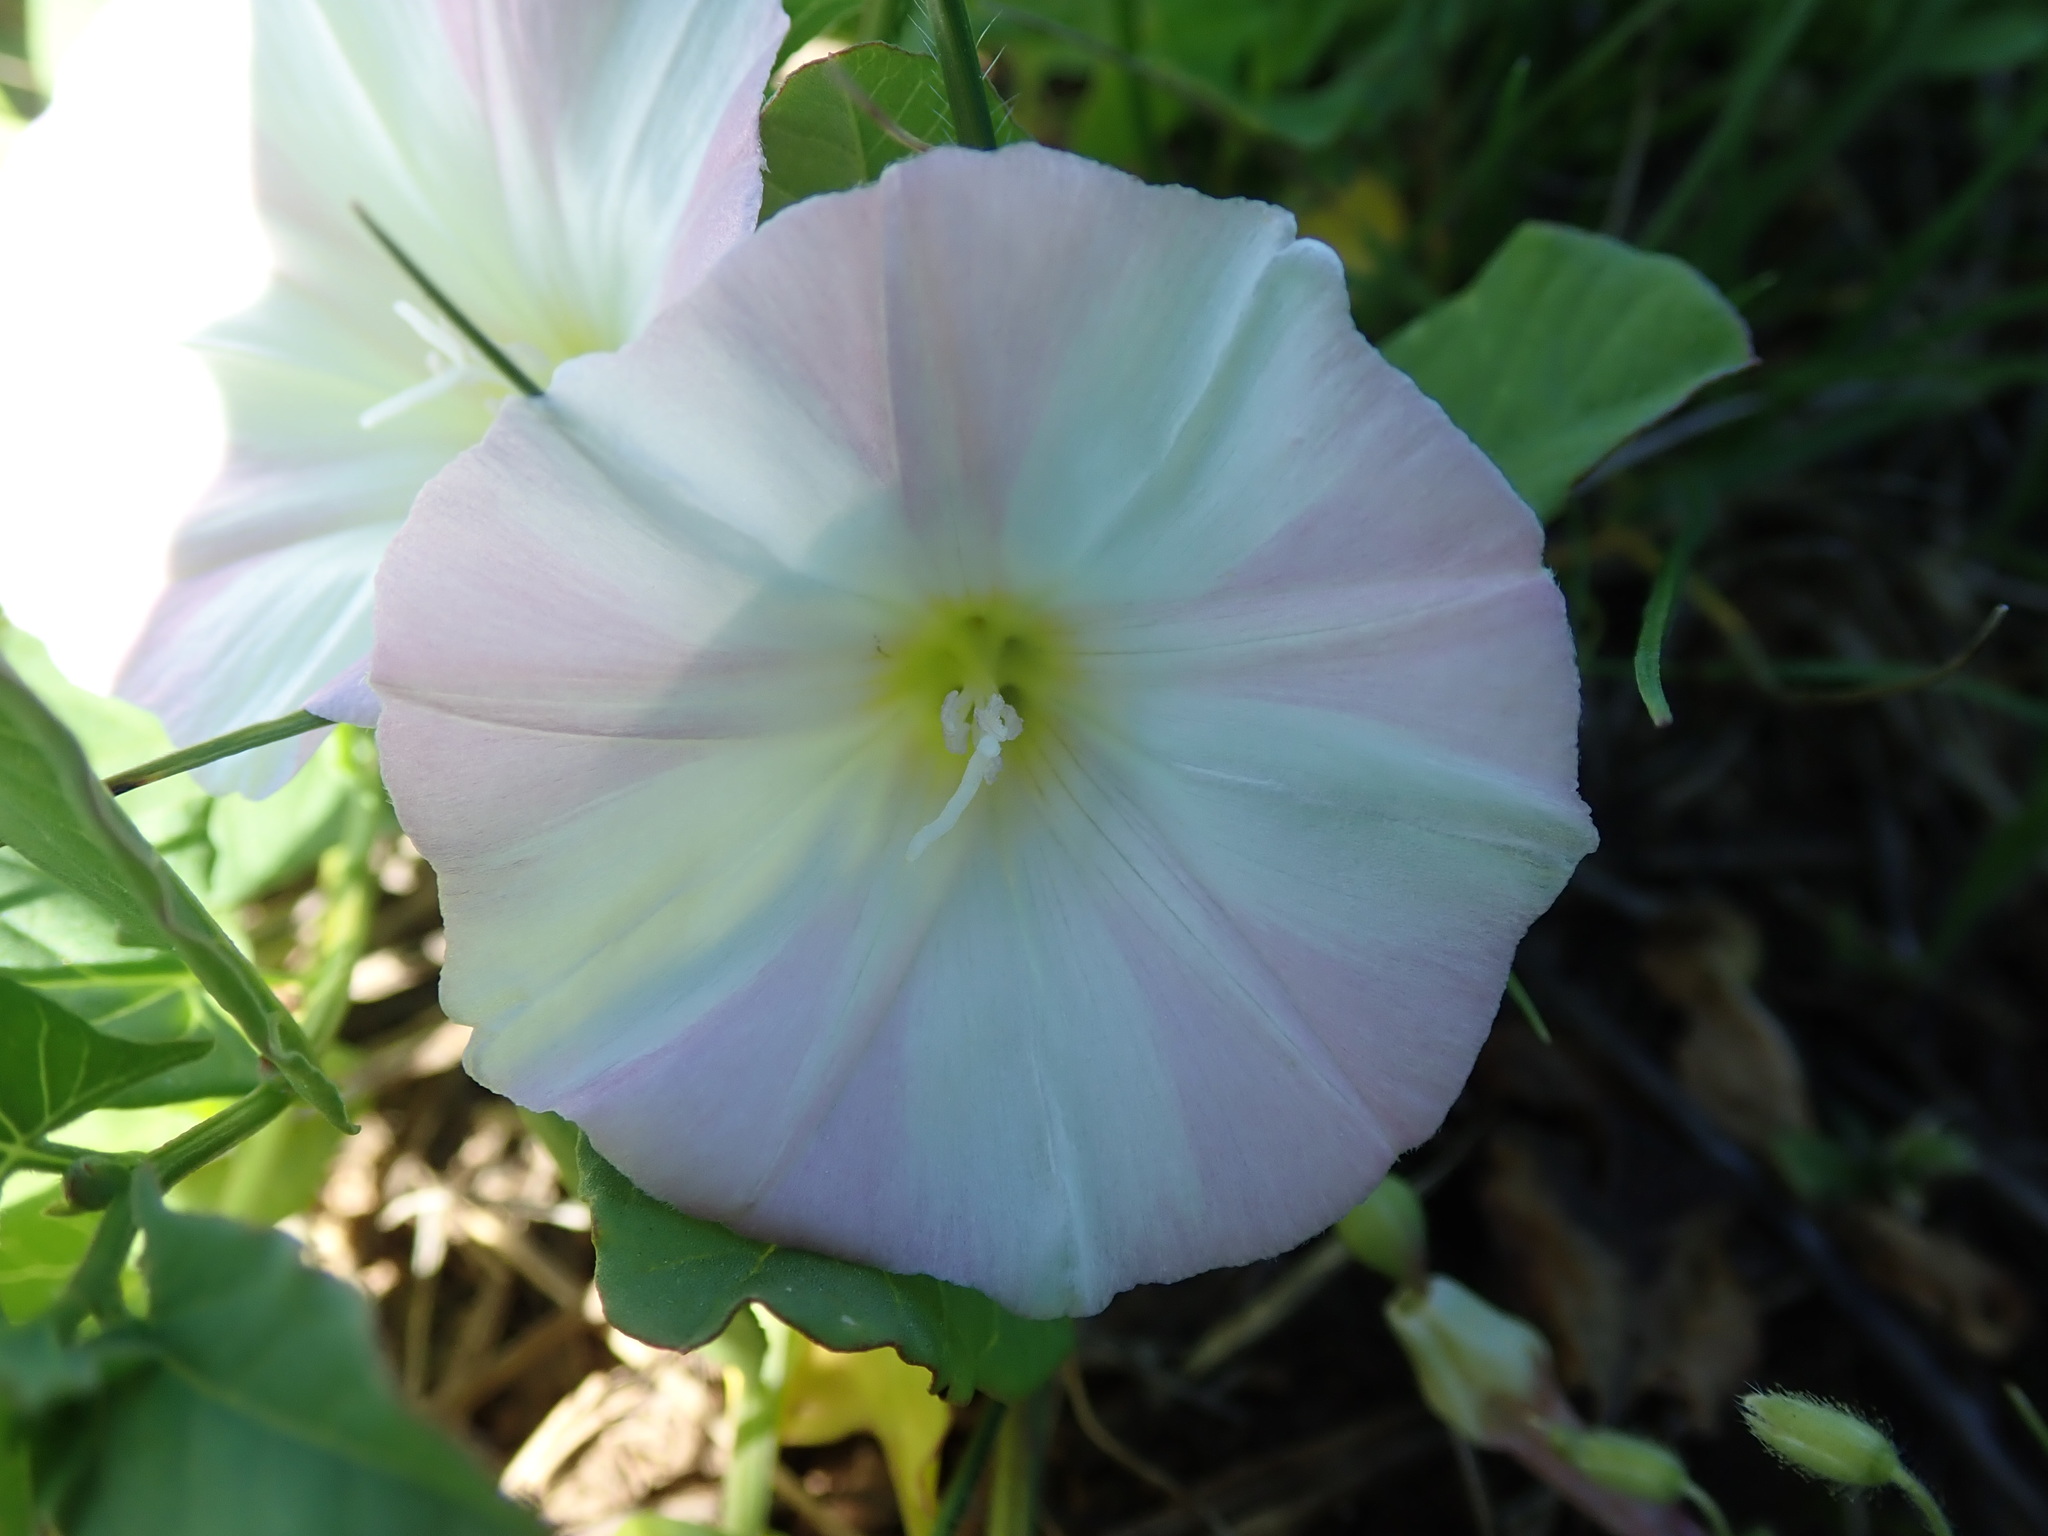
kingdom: Plantae
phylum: Tracheophyta
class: Magnoliopsida
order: Solanales
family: Convolvulaceae
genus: Convolvulus
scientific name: Convolvulus arvensis
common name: Field bindweed
